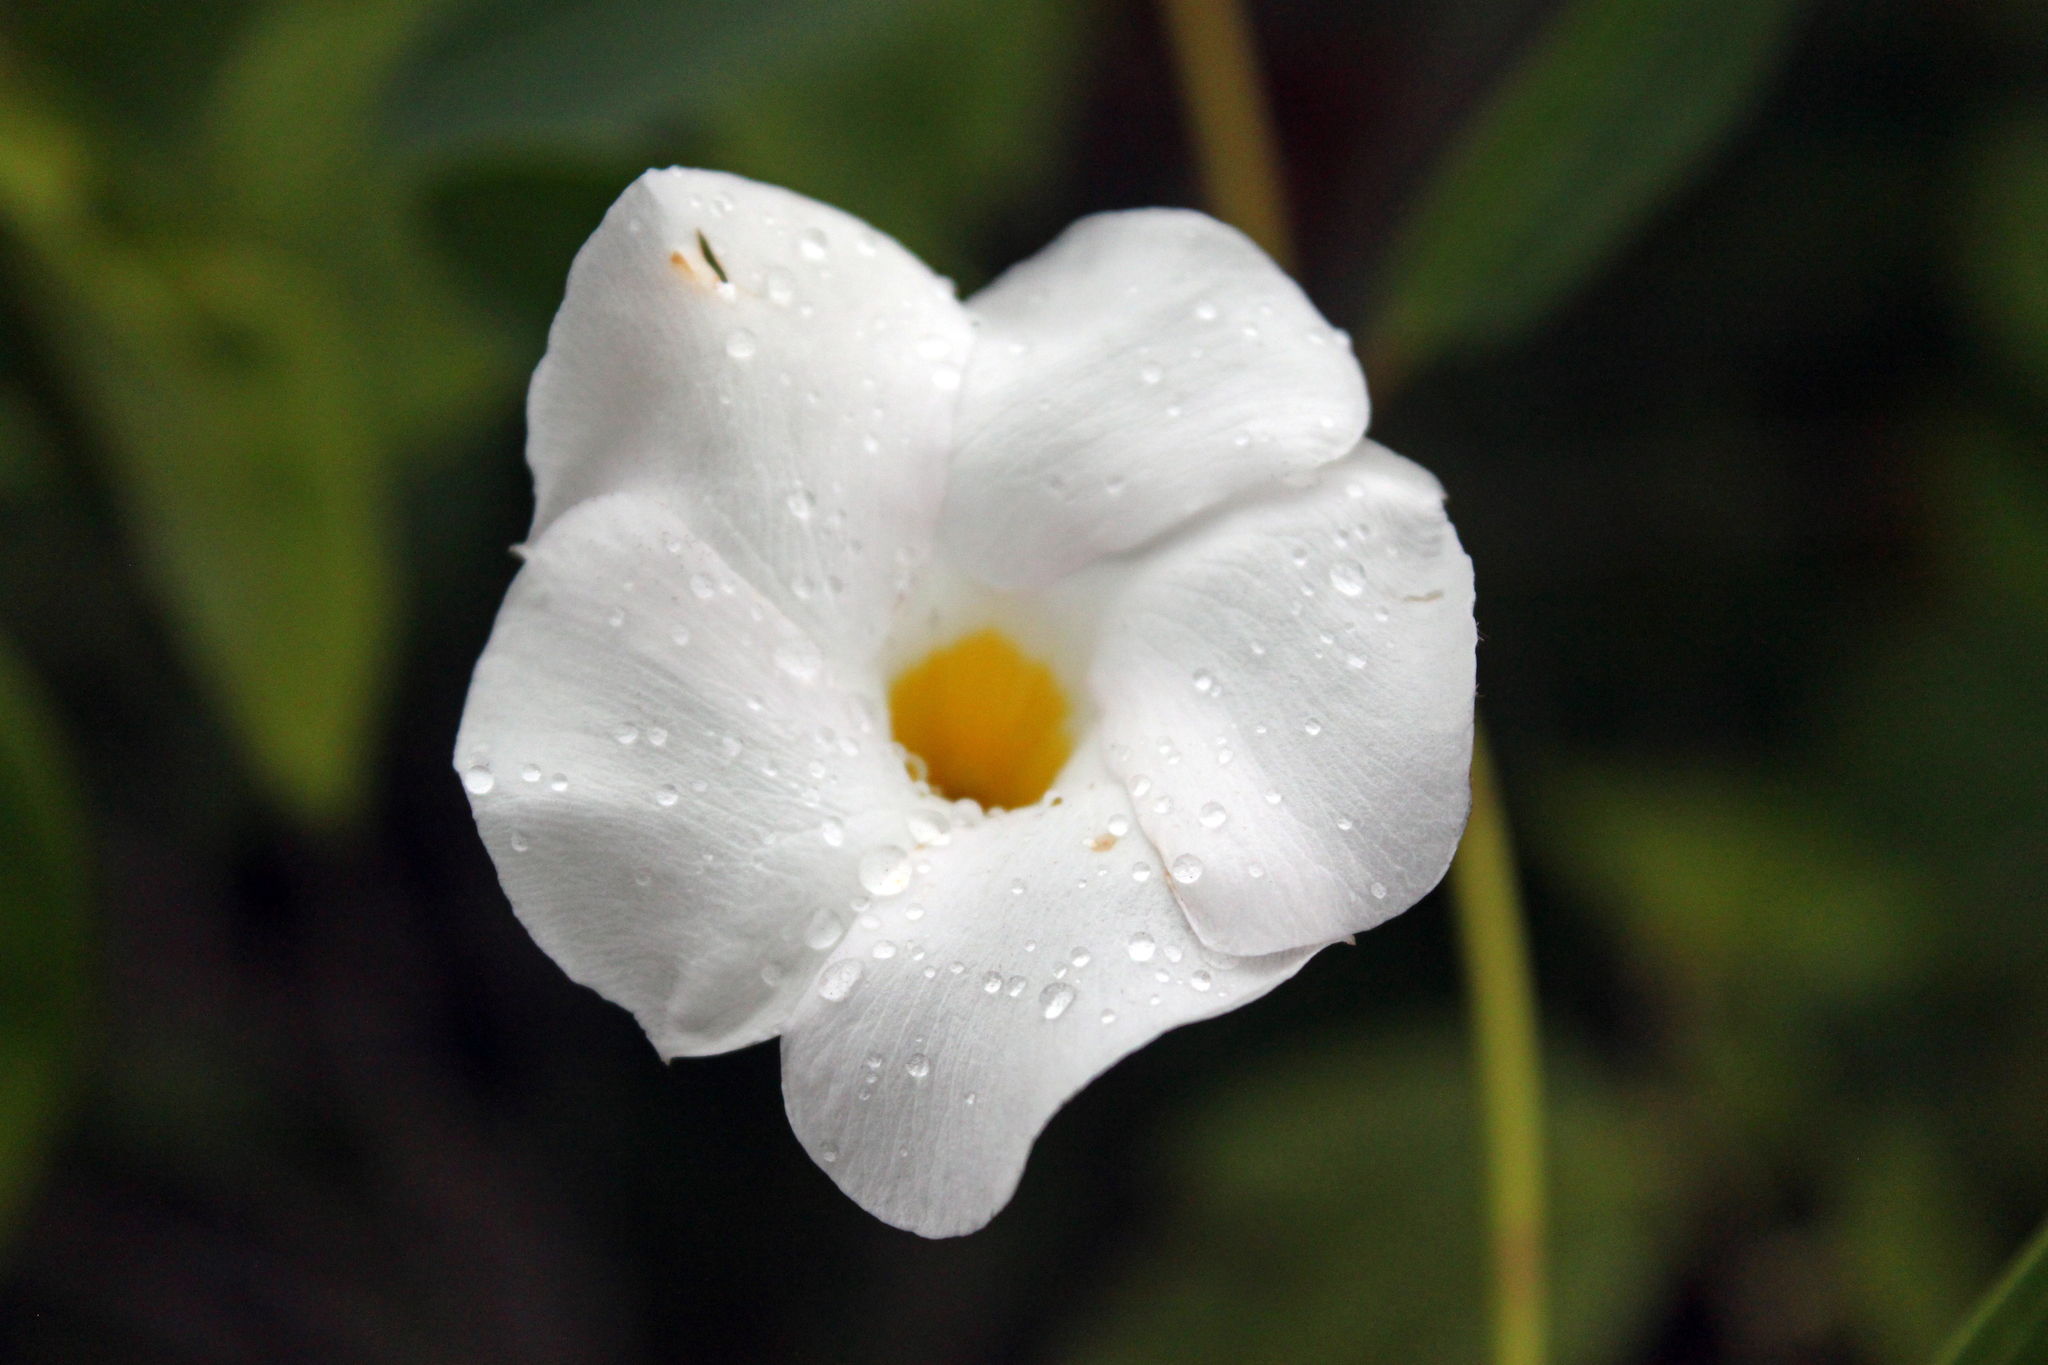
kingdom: Plantae
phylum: Tracheophyta
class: Magnoliopsida
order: Gentianales
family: Apocynaceae
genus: Rhabdadenia
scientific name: Rhabdadenia biflora
